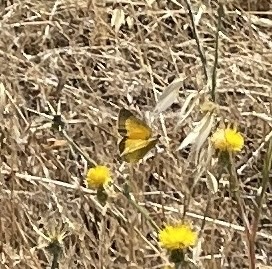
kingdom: Animalia
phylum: Arthropoda
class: Insecta
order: Lepidoptera
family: Pieridae
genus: Colias
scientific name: Colias eurytheme
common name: Alfalfa butterfly
